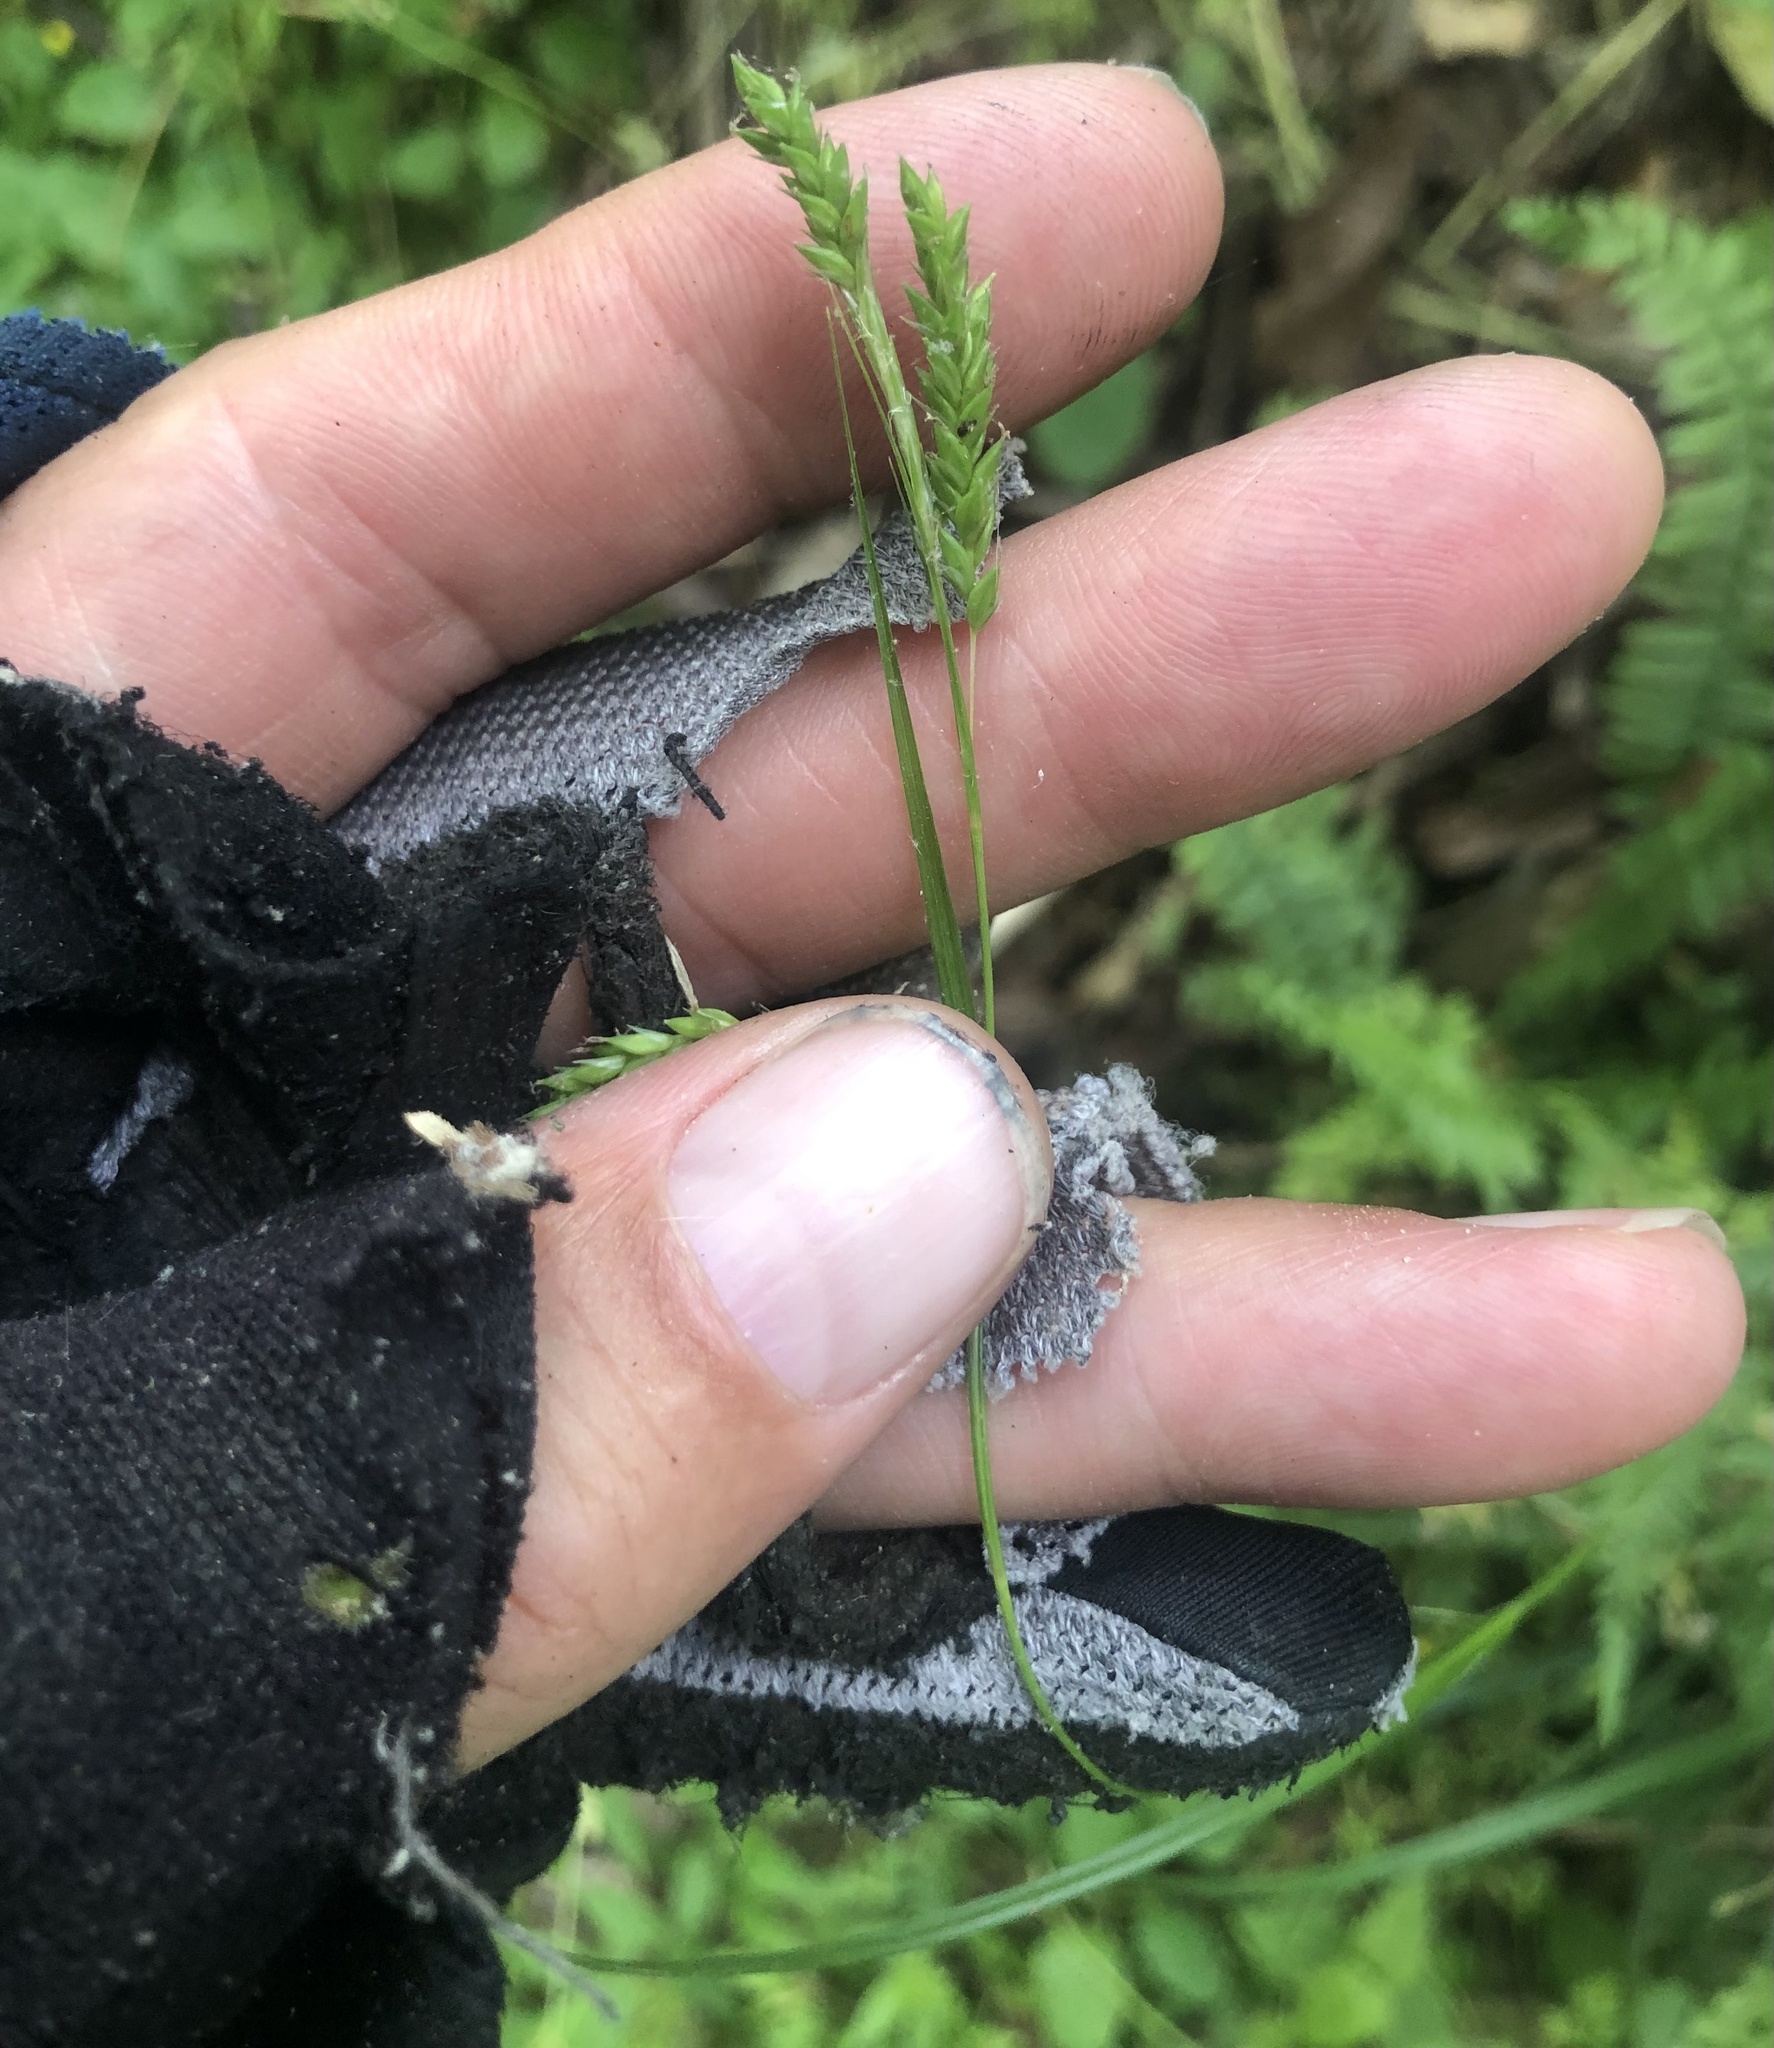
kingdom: Plantae
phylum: Tracheophyta
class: Liliopsida
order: Poales
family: Cyperaceae
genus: Carex
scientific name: Carex oxylepis
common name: Sharpscale sedge
